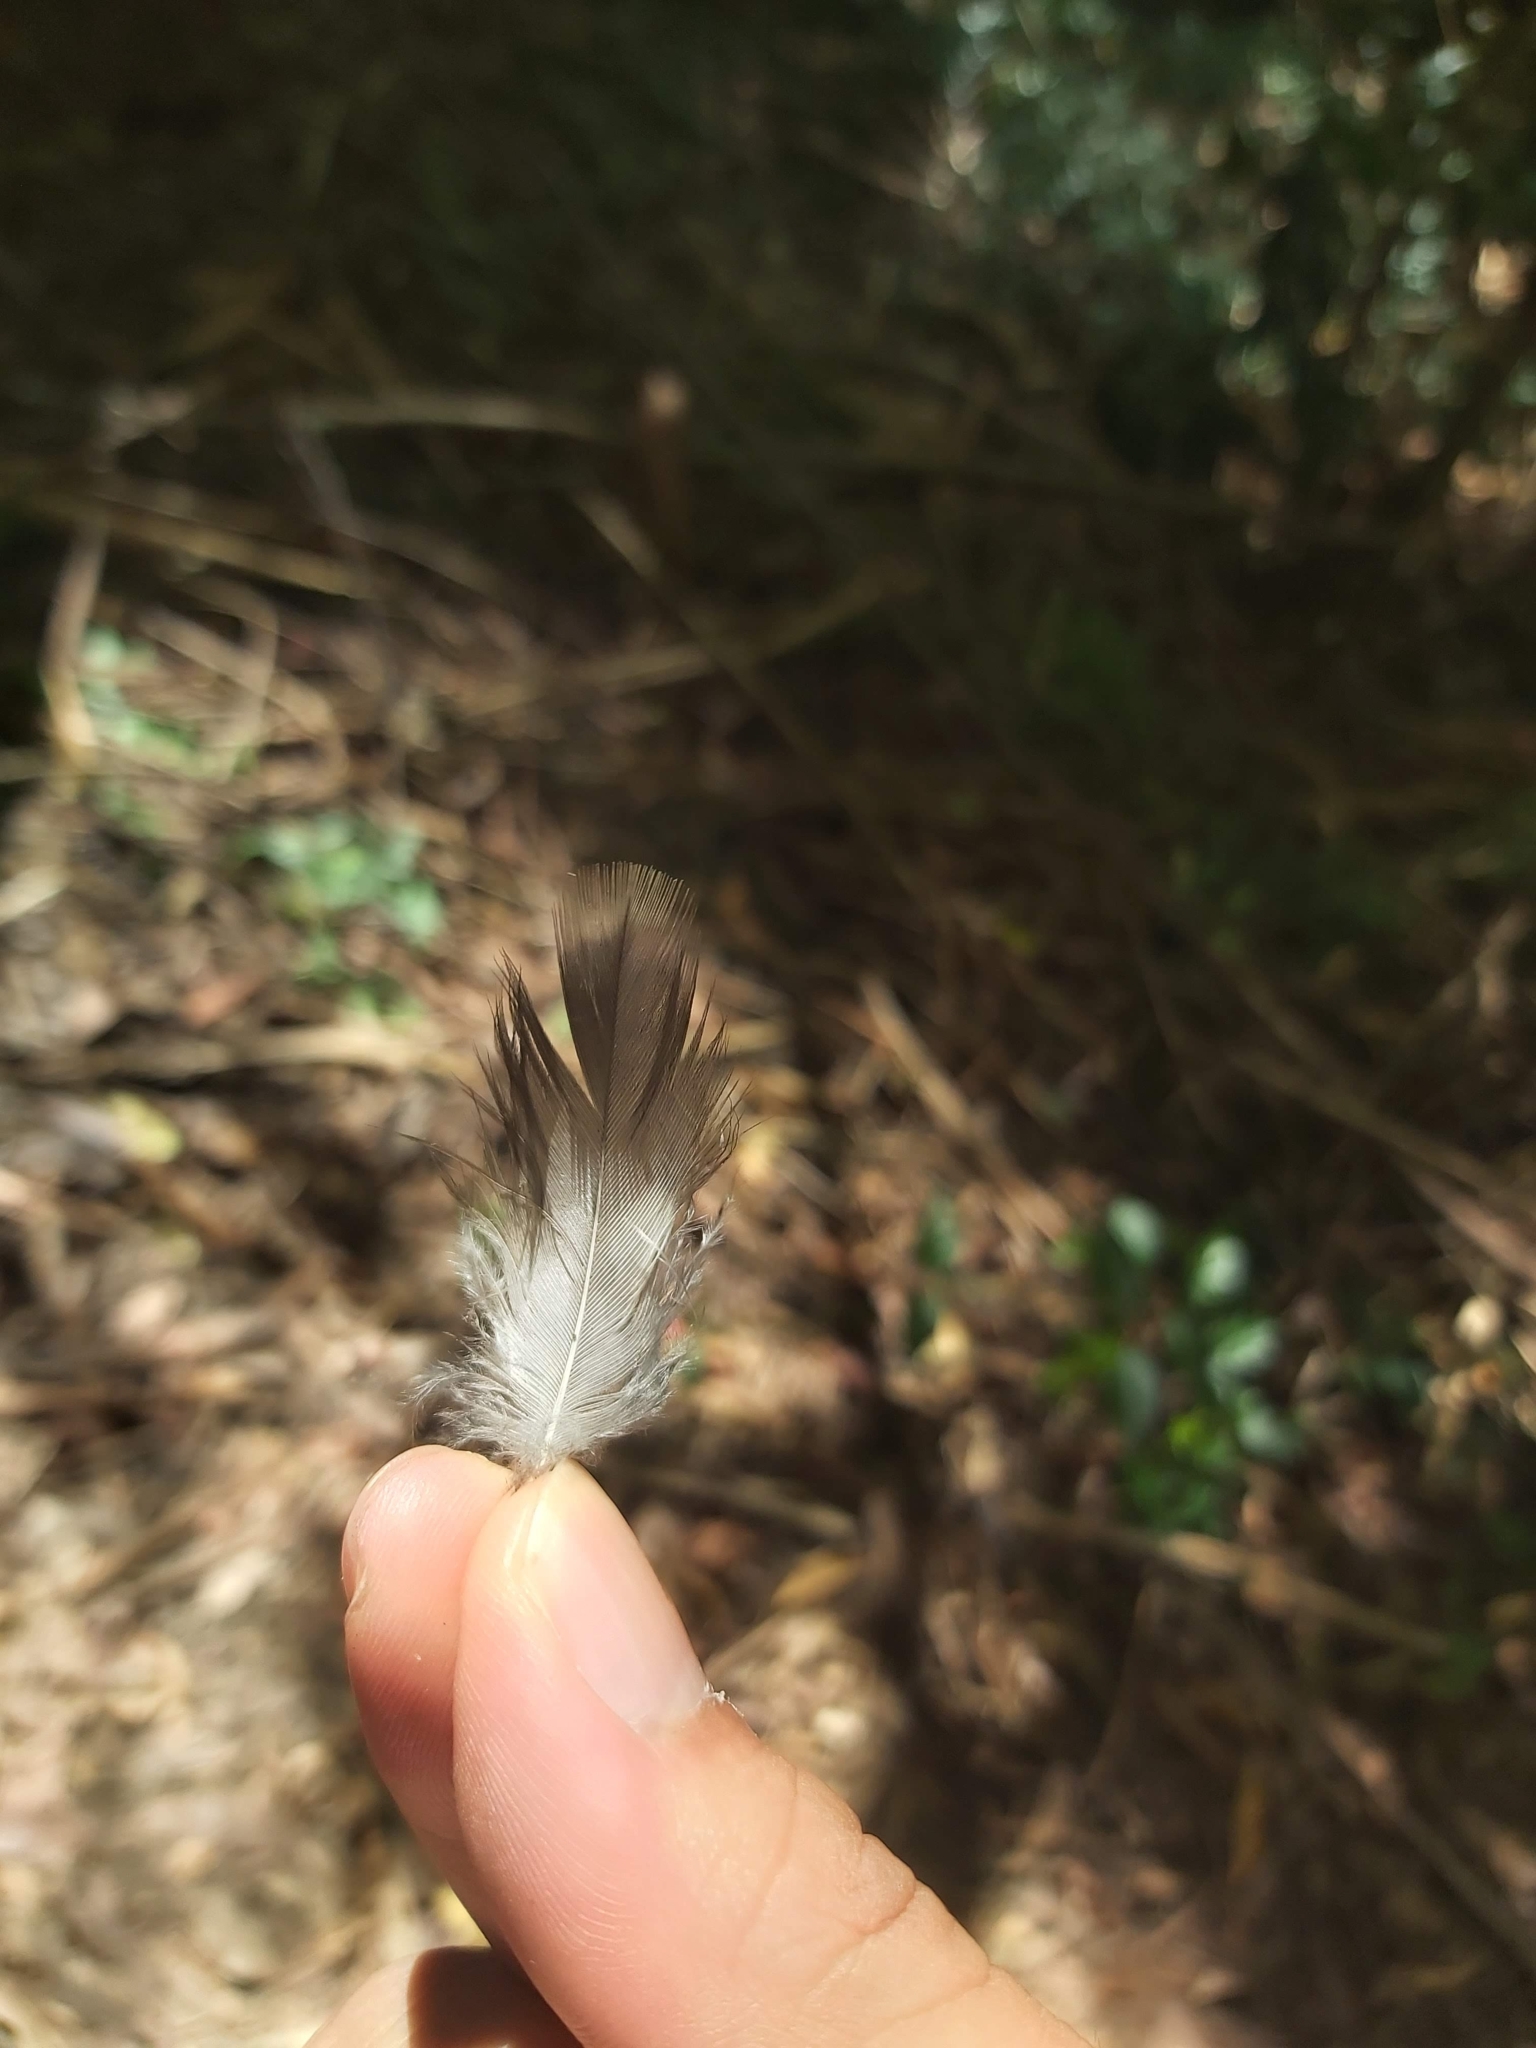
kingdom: Animalia
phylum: Chordata
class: Aves
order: Coraciiformes
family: Alcedinidae
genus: Dacelo
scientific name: Dacelo novaeguineae
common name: Laughing kookaburra
